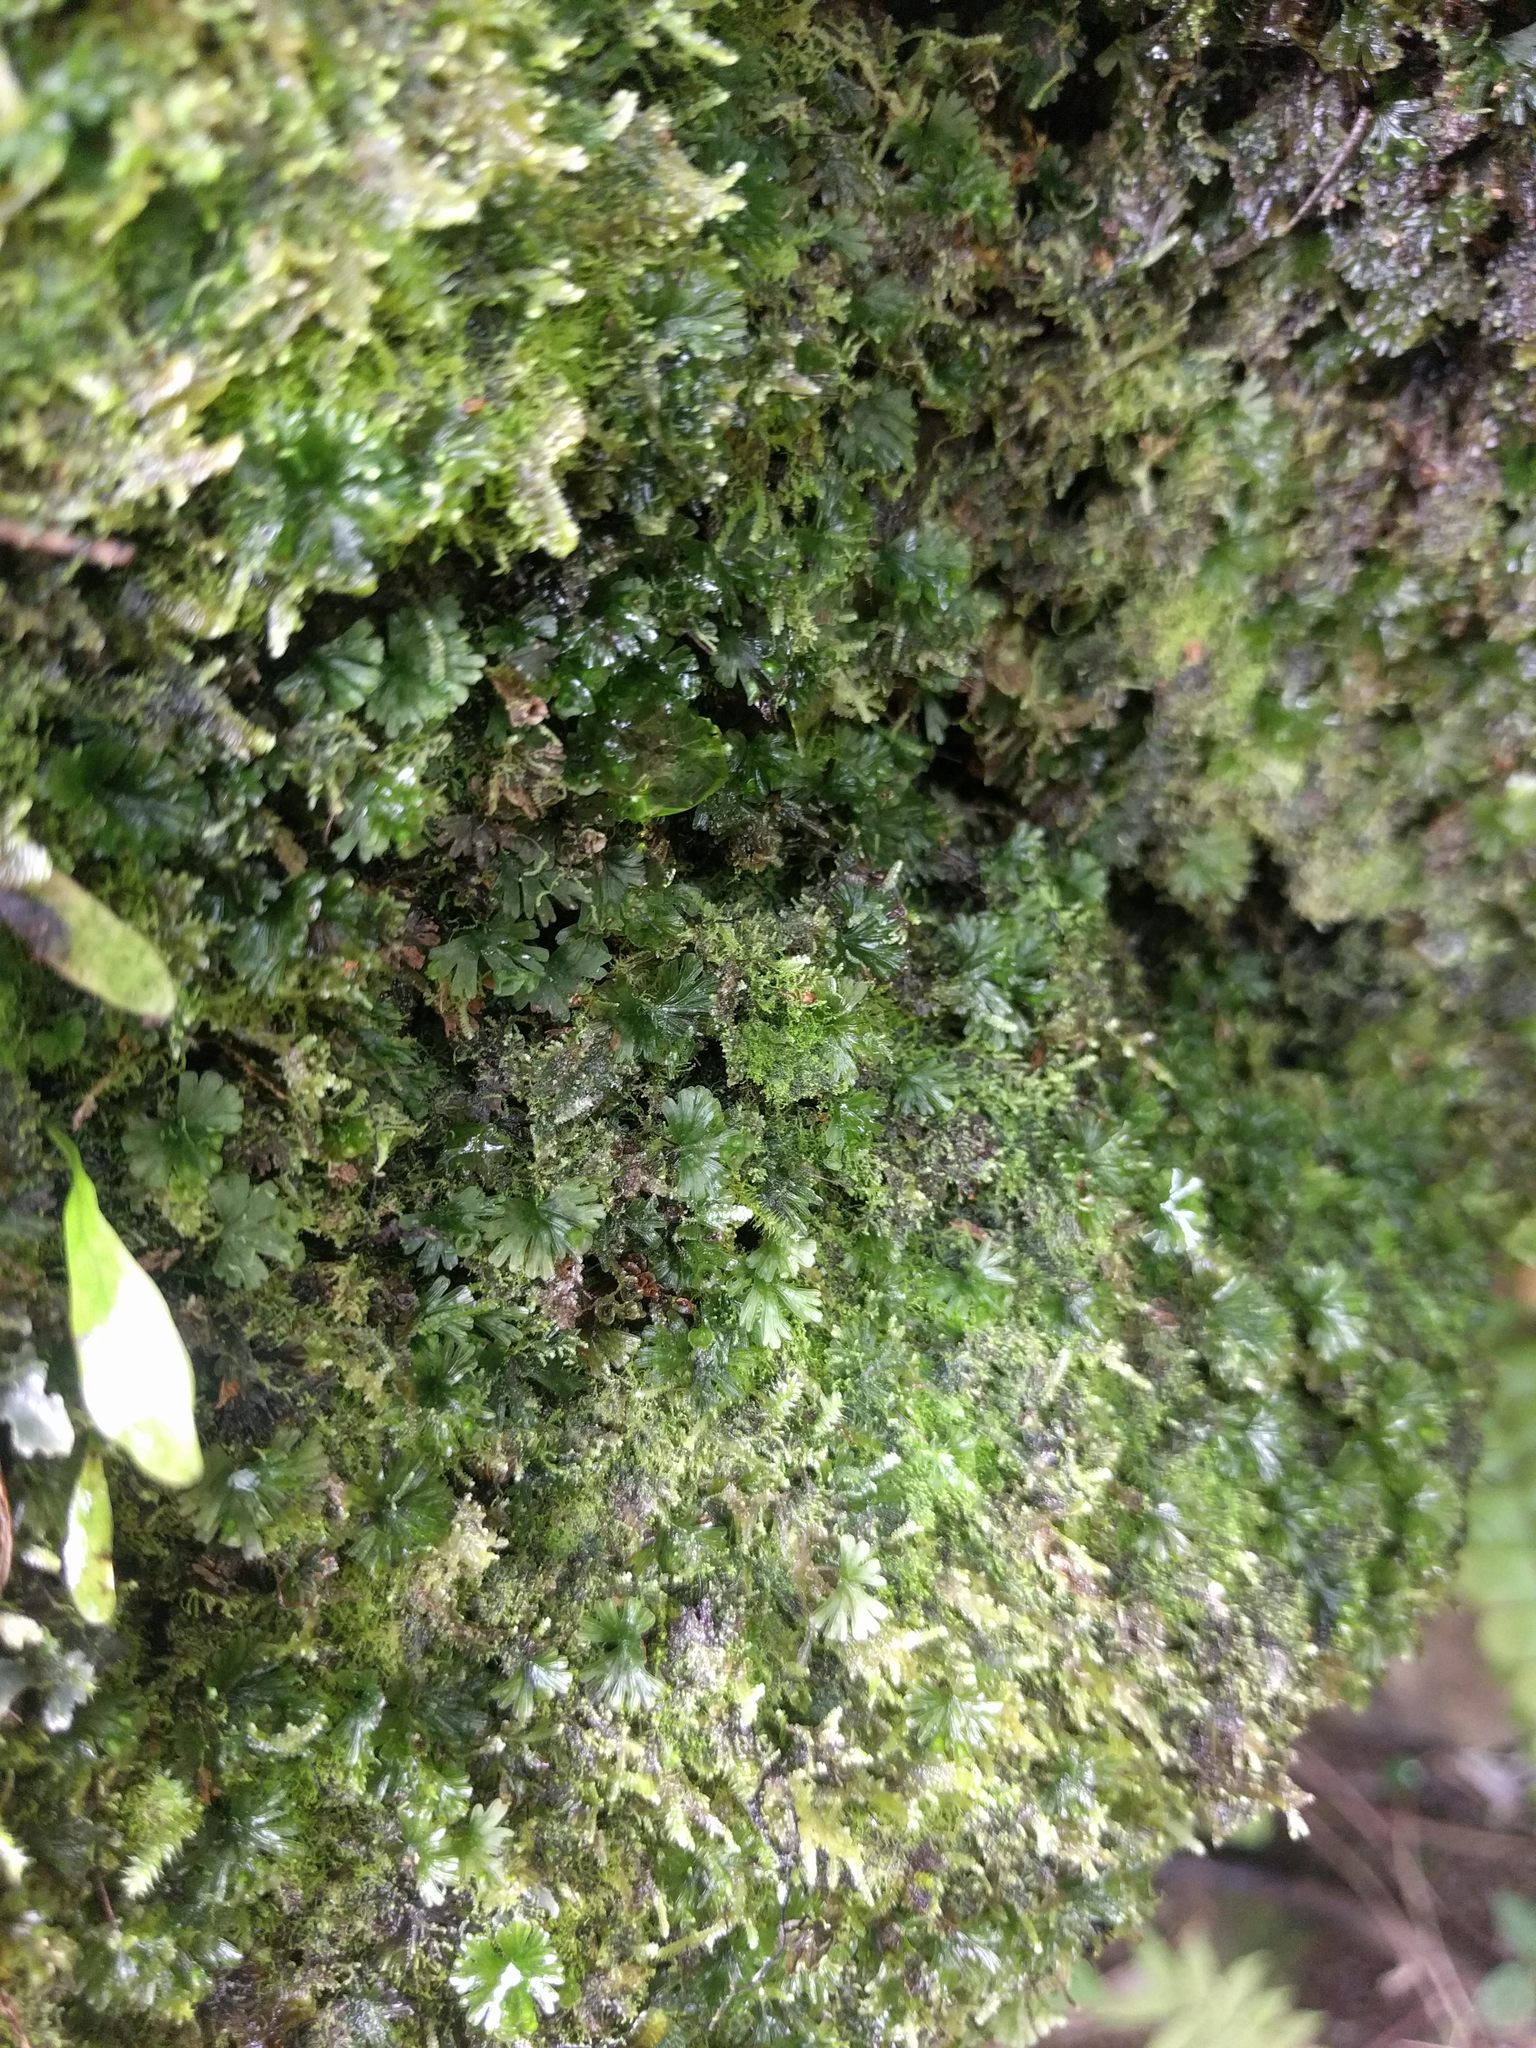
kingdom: Plantae
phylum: Tracheophyta
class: Polypodiopsida
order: Hymenophyllales
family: Hymenophyllaceae
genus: Crepidomanes
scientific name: Crepidomanes parvulum
